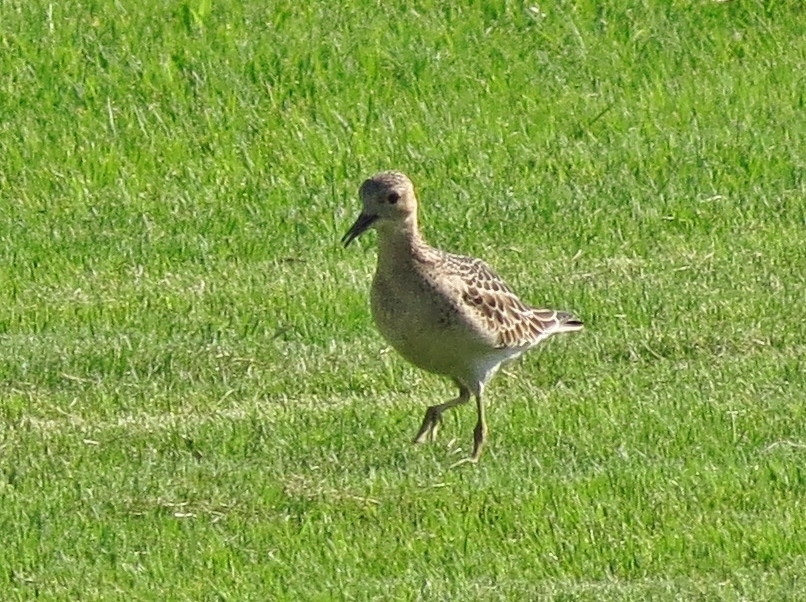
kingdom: Animalia
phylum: Chordata
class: Aves
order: Charadriiformes
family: Scolopacidae
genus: Calidris
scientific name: Calidris subruficollis
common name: Buff-breasted sandpiper
